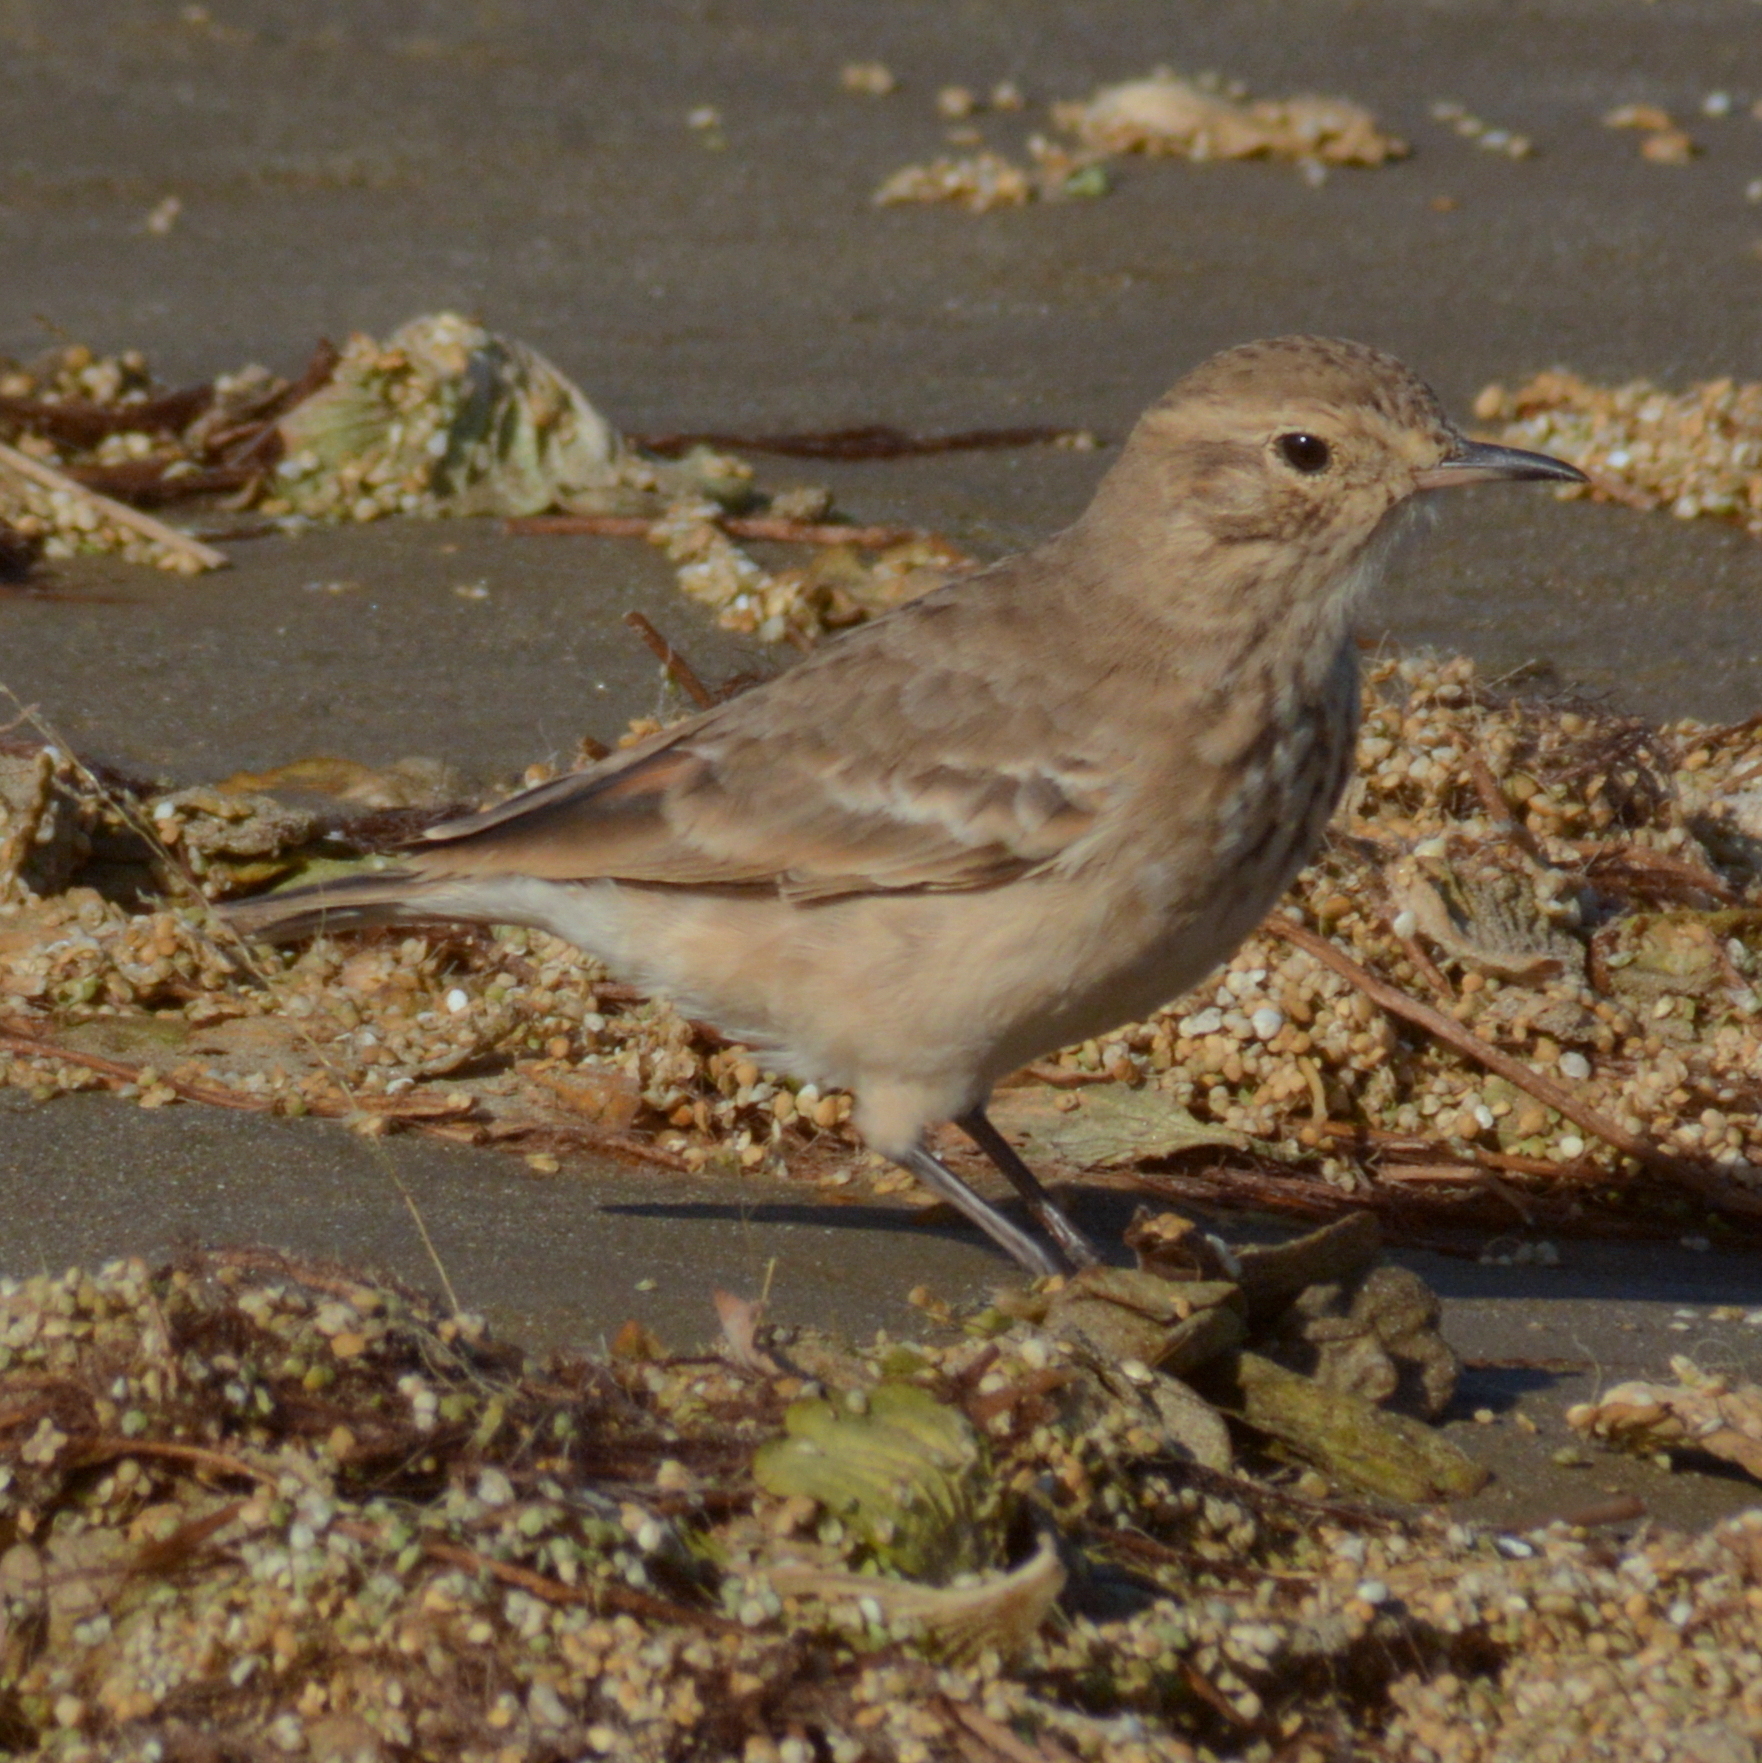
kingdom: Animalia
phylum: Chordata
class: Aves
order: Passeriformes
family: Furnariidae
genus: Geositta
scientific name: Geositta cunicularia
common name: Common miner
